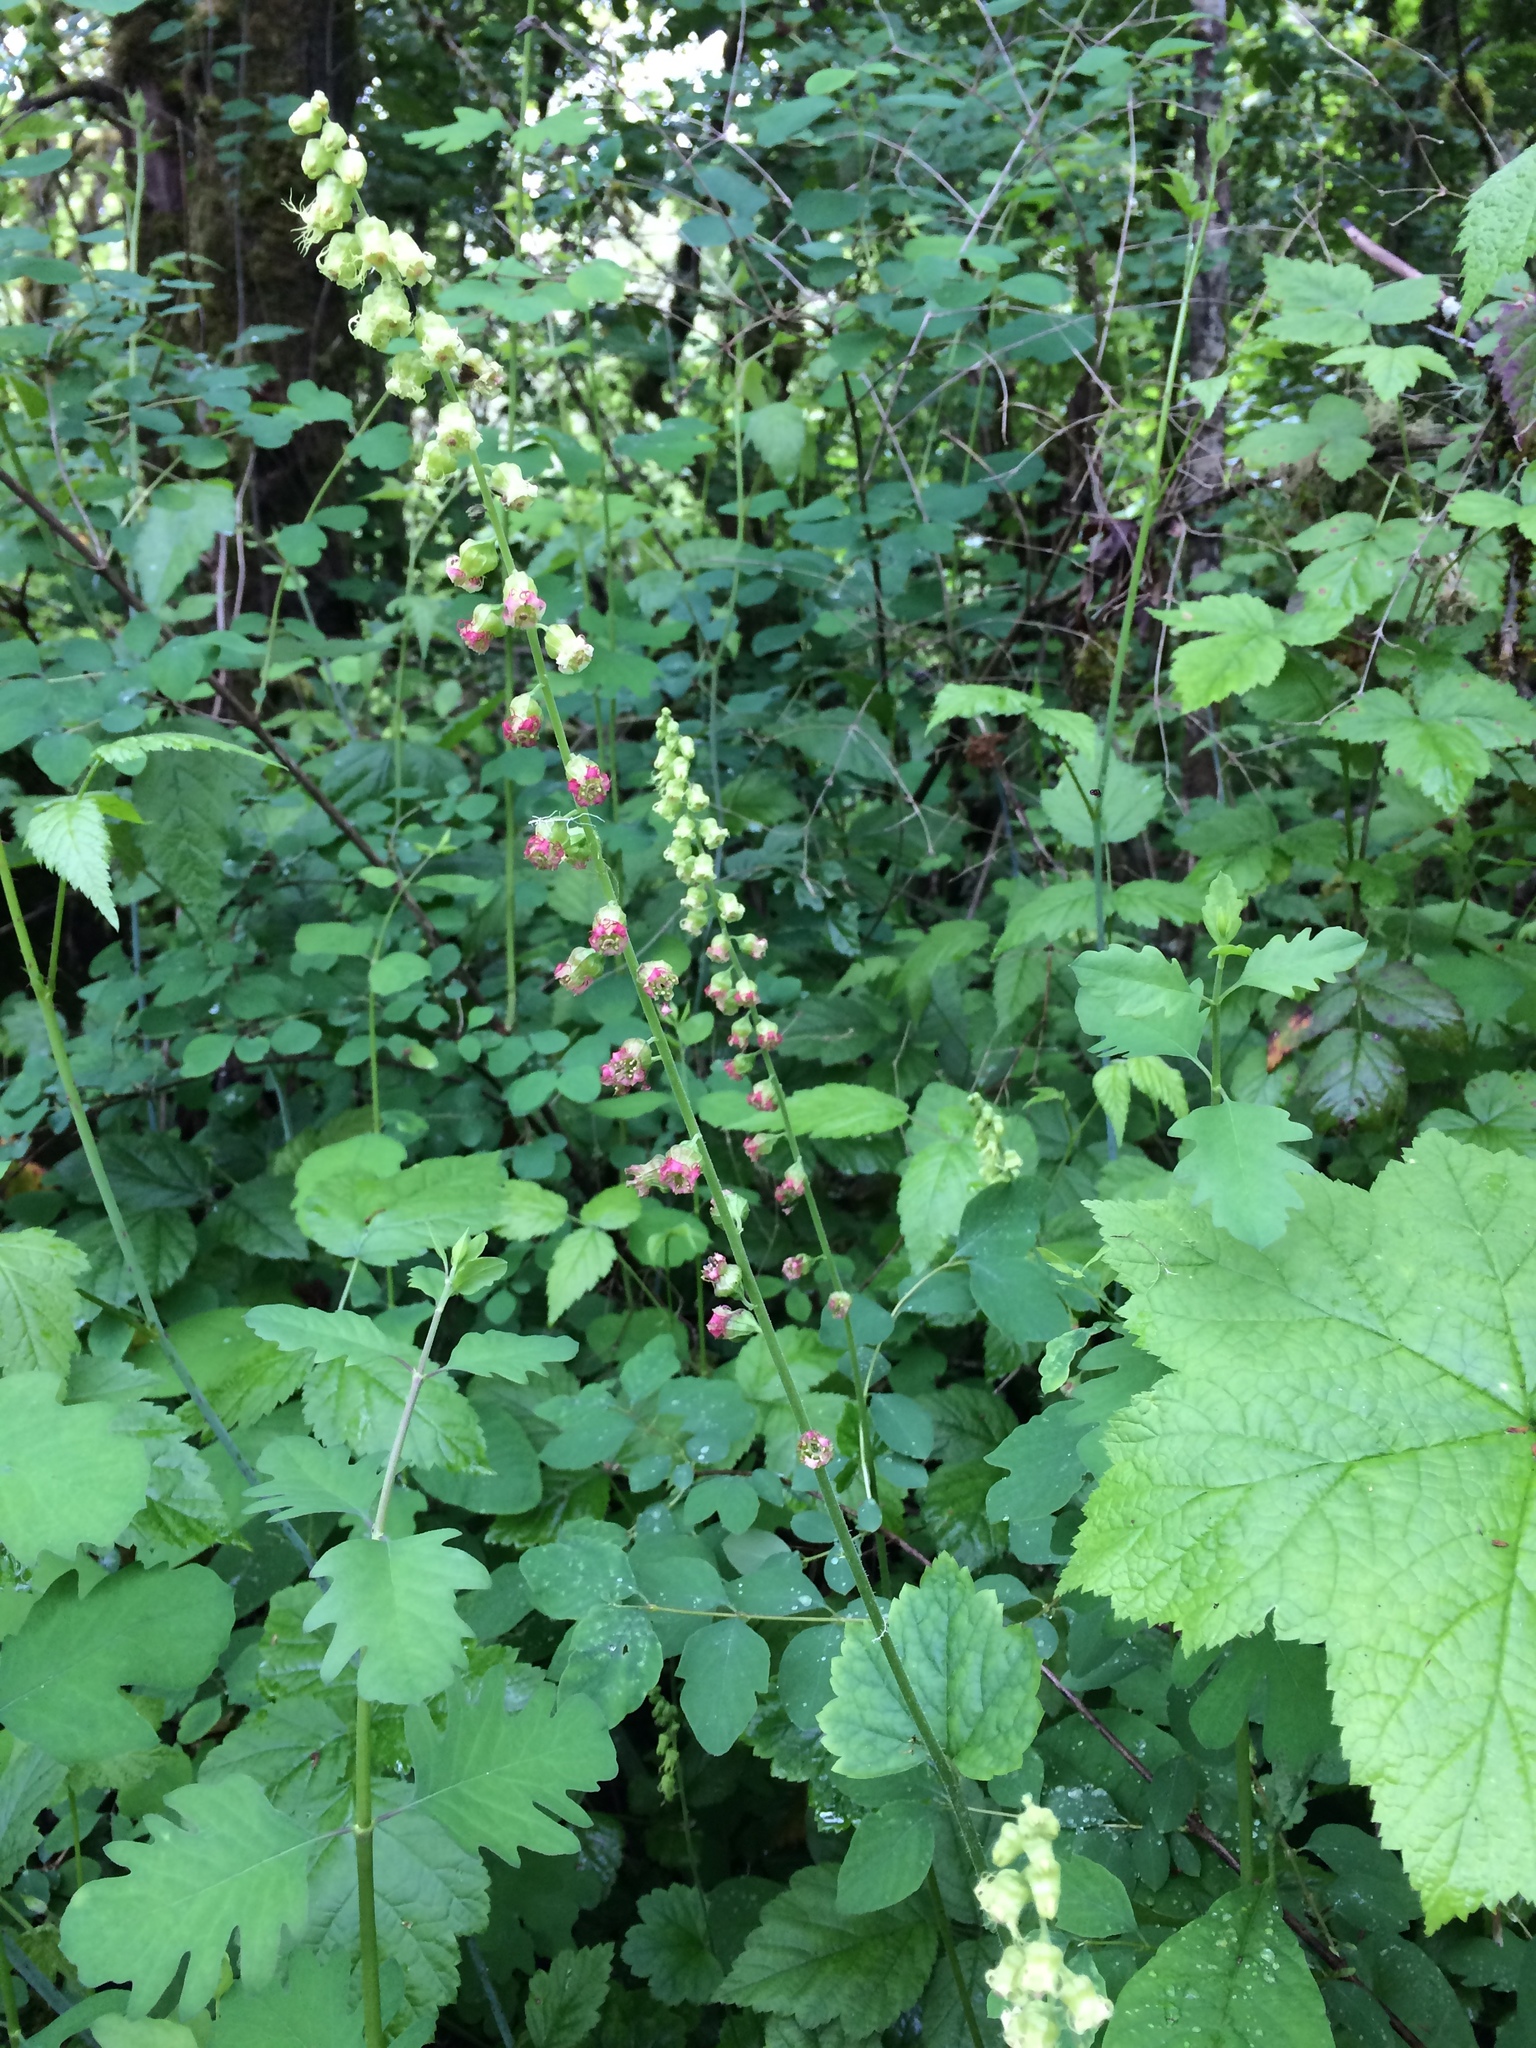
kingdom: Plantae
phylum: Tracheophyta
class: Magnoliopsida
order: Saxifragales
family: Saxifragaceae
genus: Tellima
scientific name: Tellima grandiflora
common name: Fringecups
